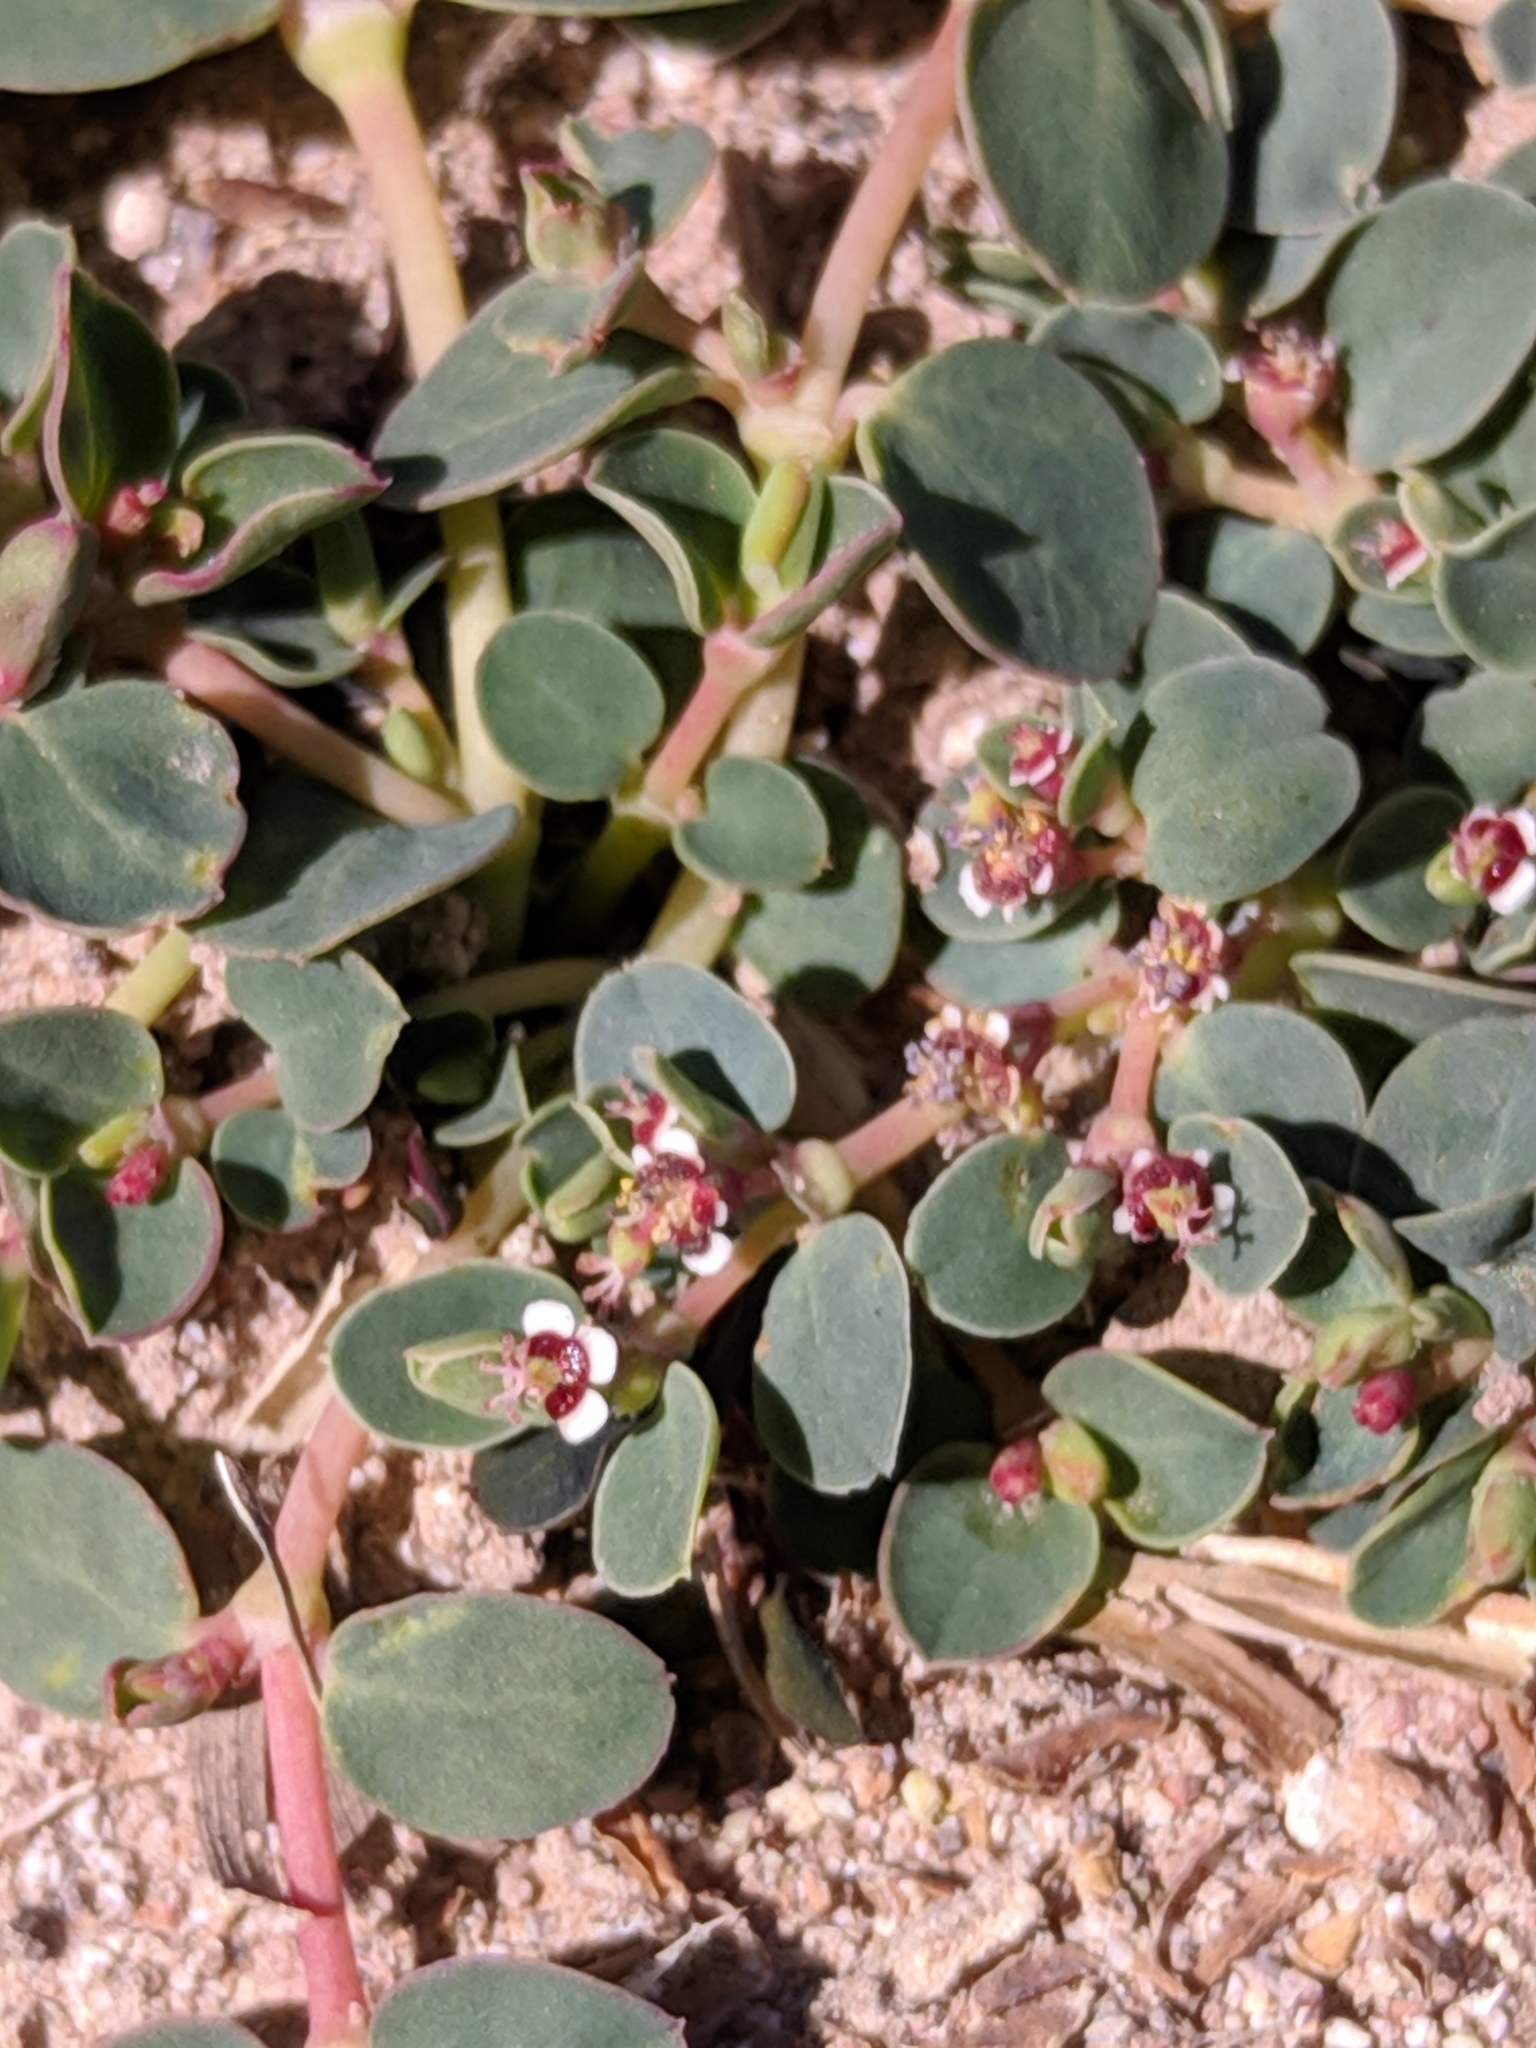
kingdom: Plantae
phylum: Tracheophyta
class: Magnoliopsida
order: Malpighiales
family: Euphorbiaceae
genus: Euphorbia
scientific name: Euphorbia albomarginata
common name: Whitemargin sandmat
